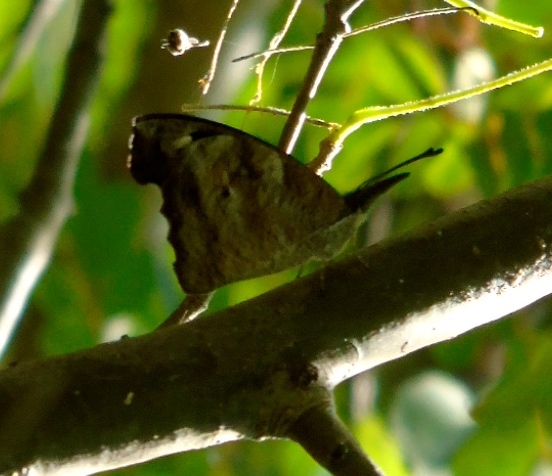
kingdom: Animalia
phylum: Arthropoda
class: Insecta
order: Lepidoptera
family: Nymphalidae
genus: Libytheana
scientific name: Libytheana carinenta
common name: American snout
